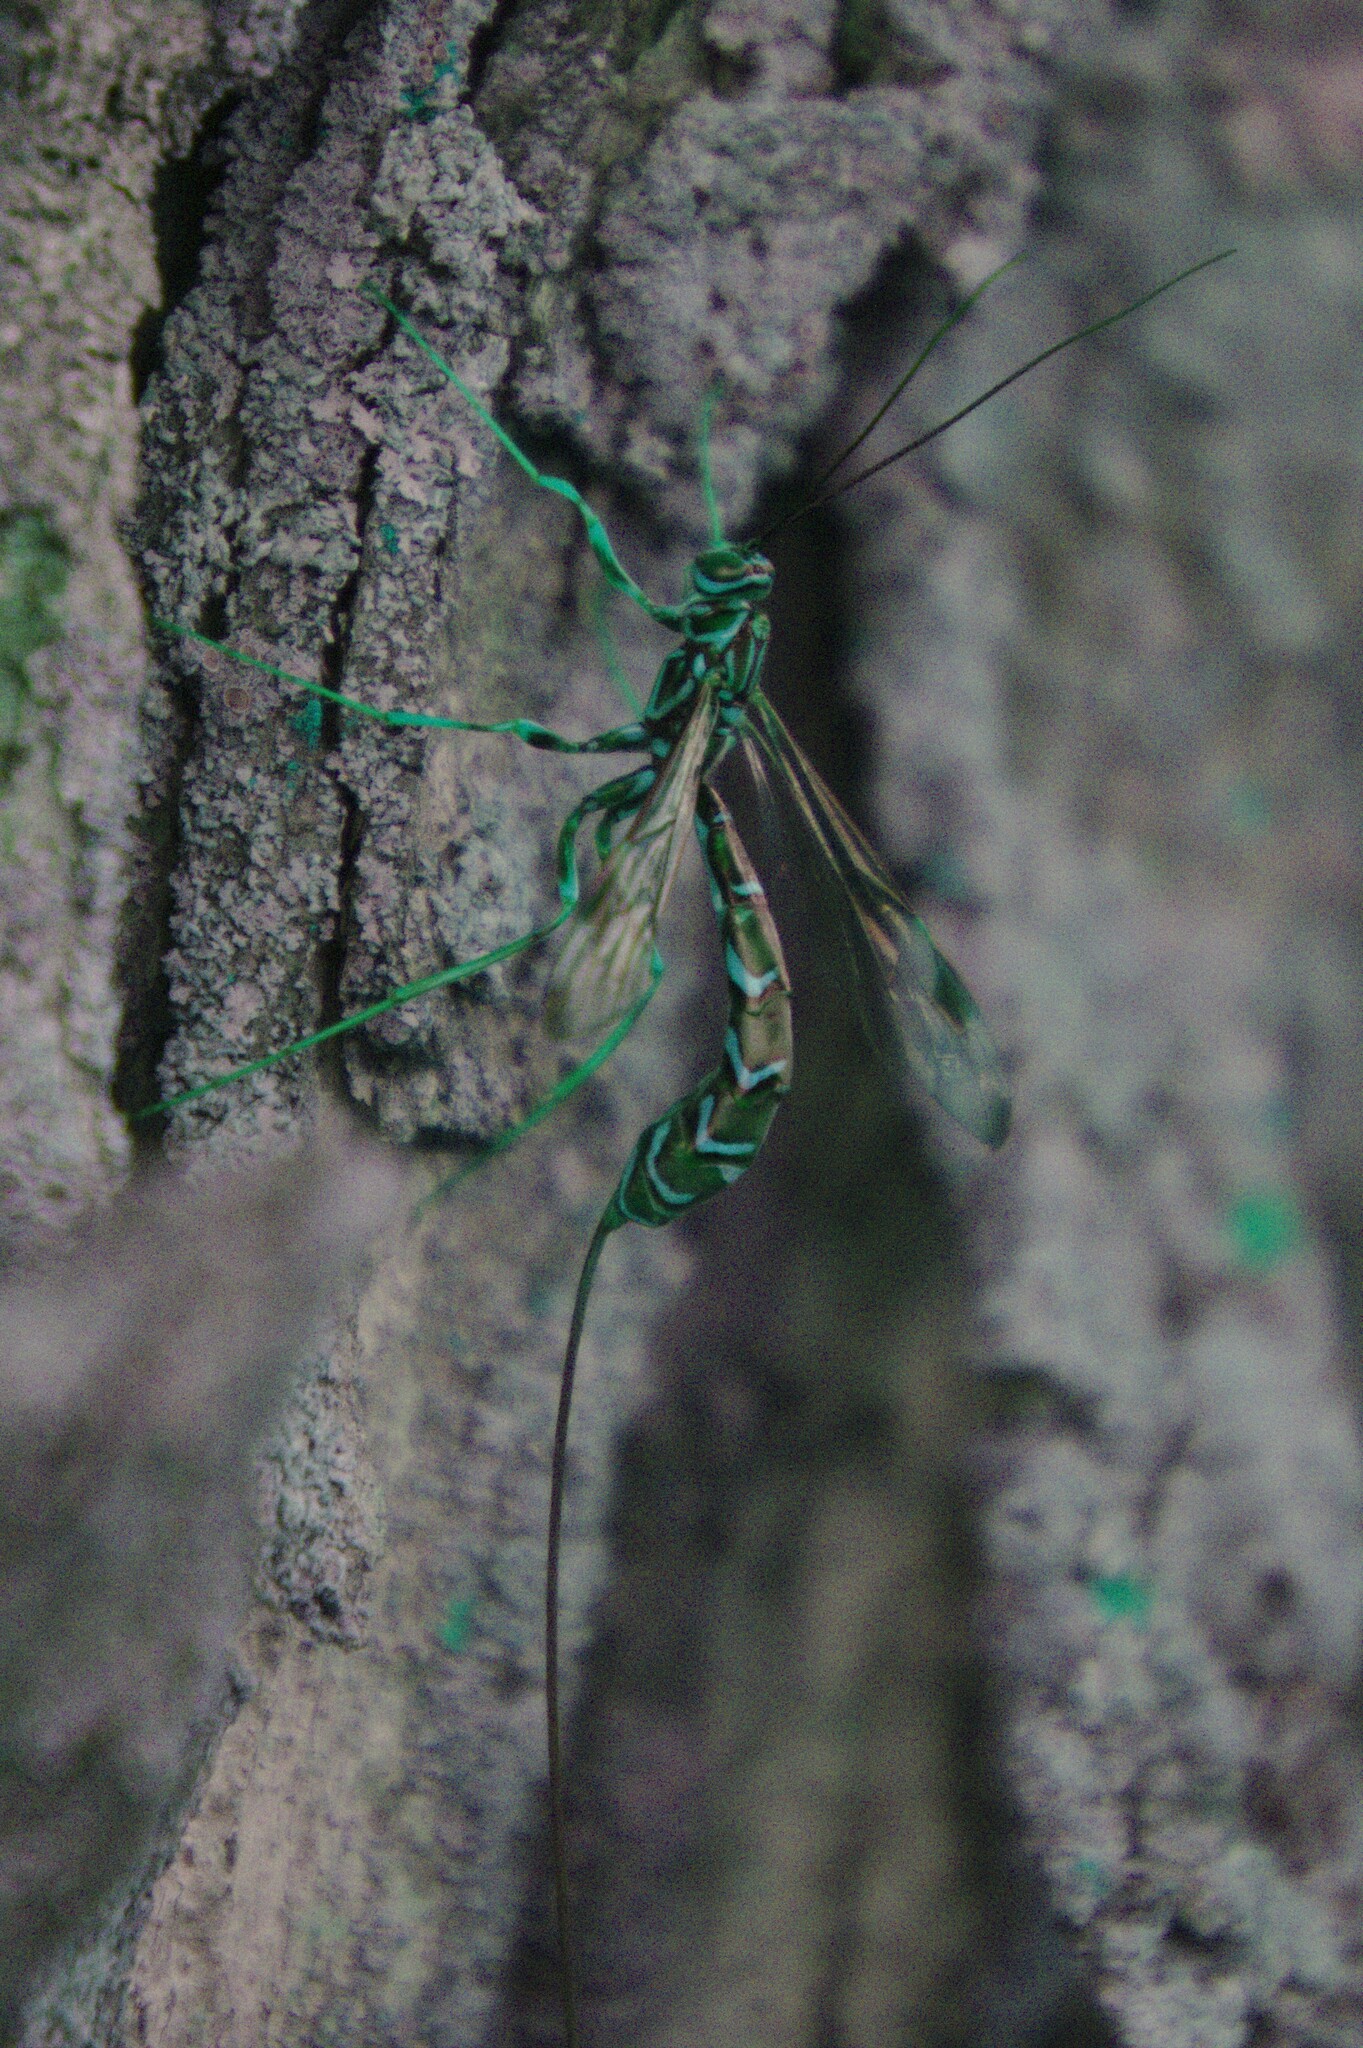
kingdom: Animalia
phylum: Arthropoda
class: Insecta
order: Hymenoptera
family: Ichneumonidae
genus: Megarhyssa
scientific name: Megarhyssa macrura
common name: Long-tailed giant ichneumonid wasp
